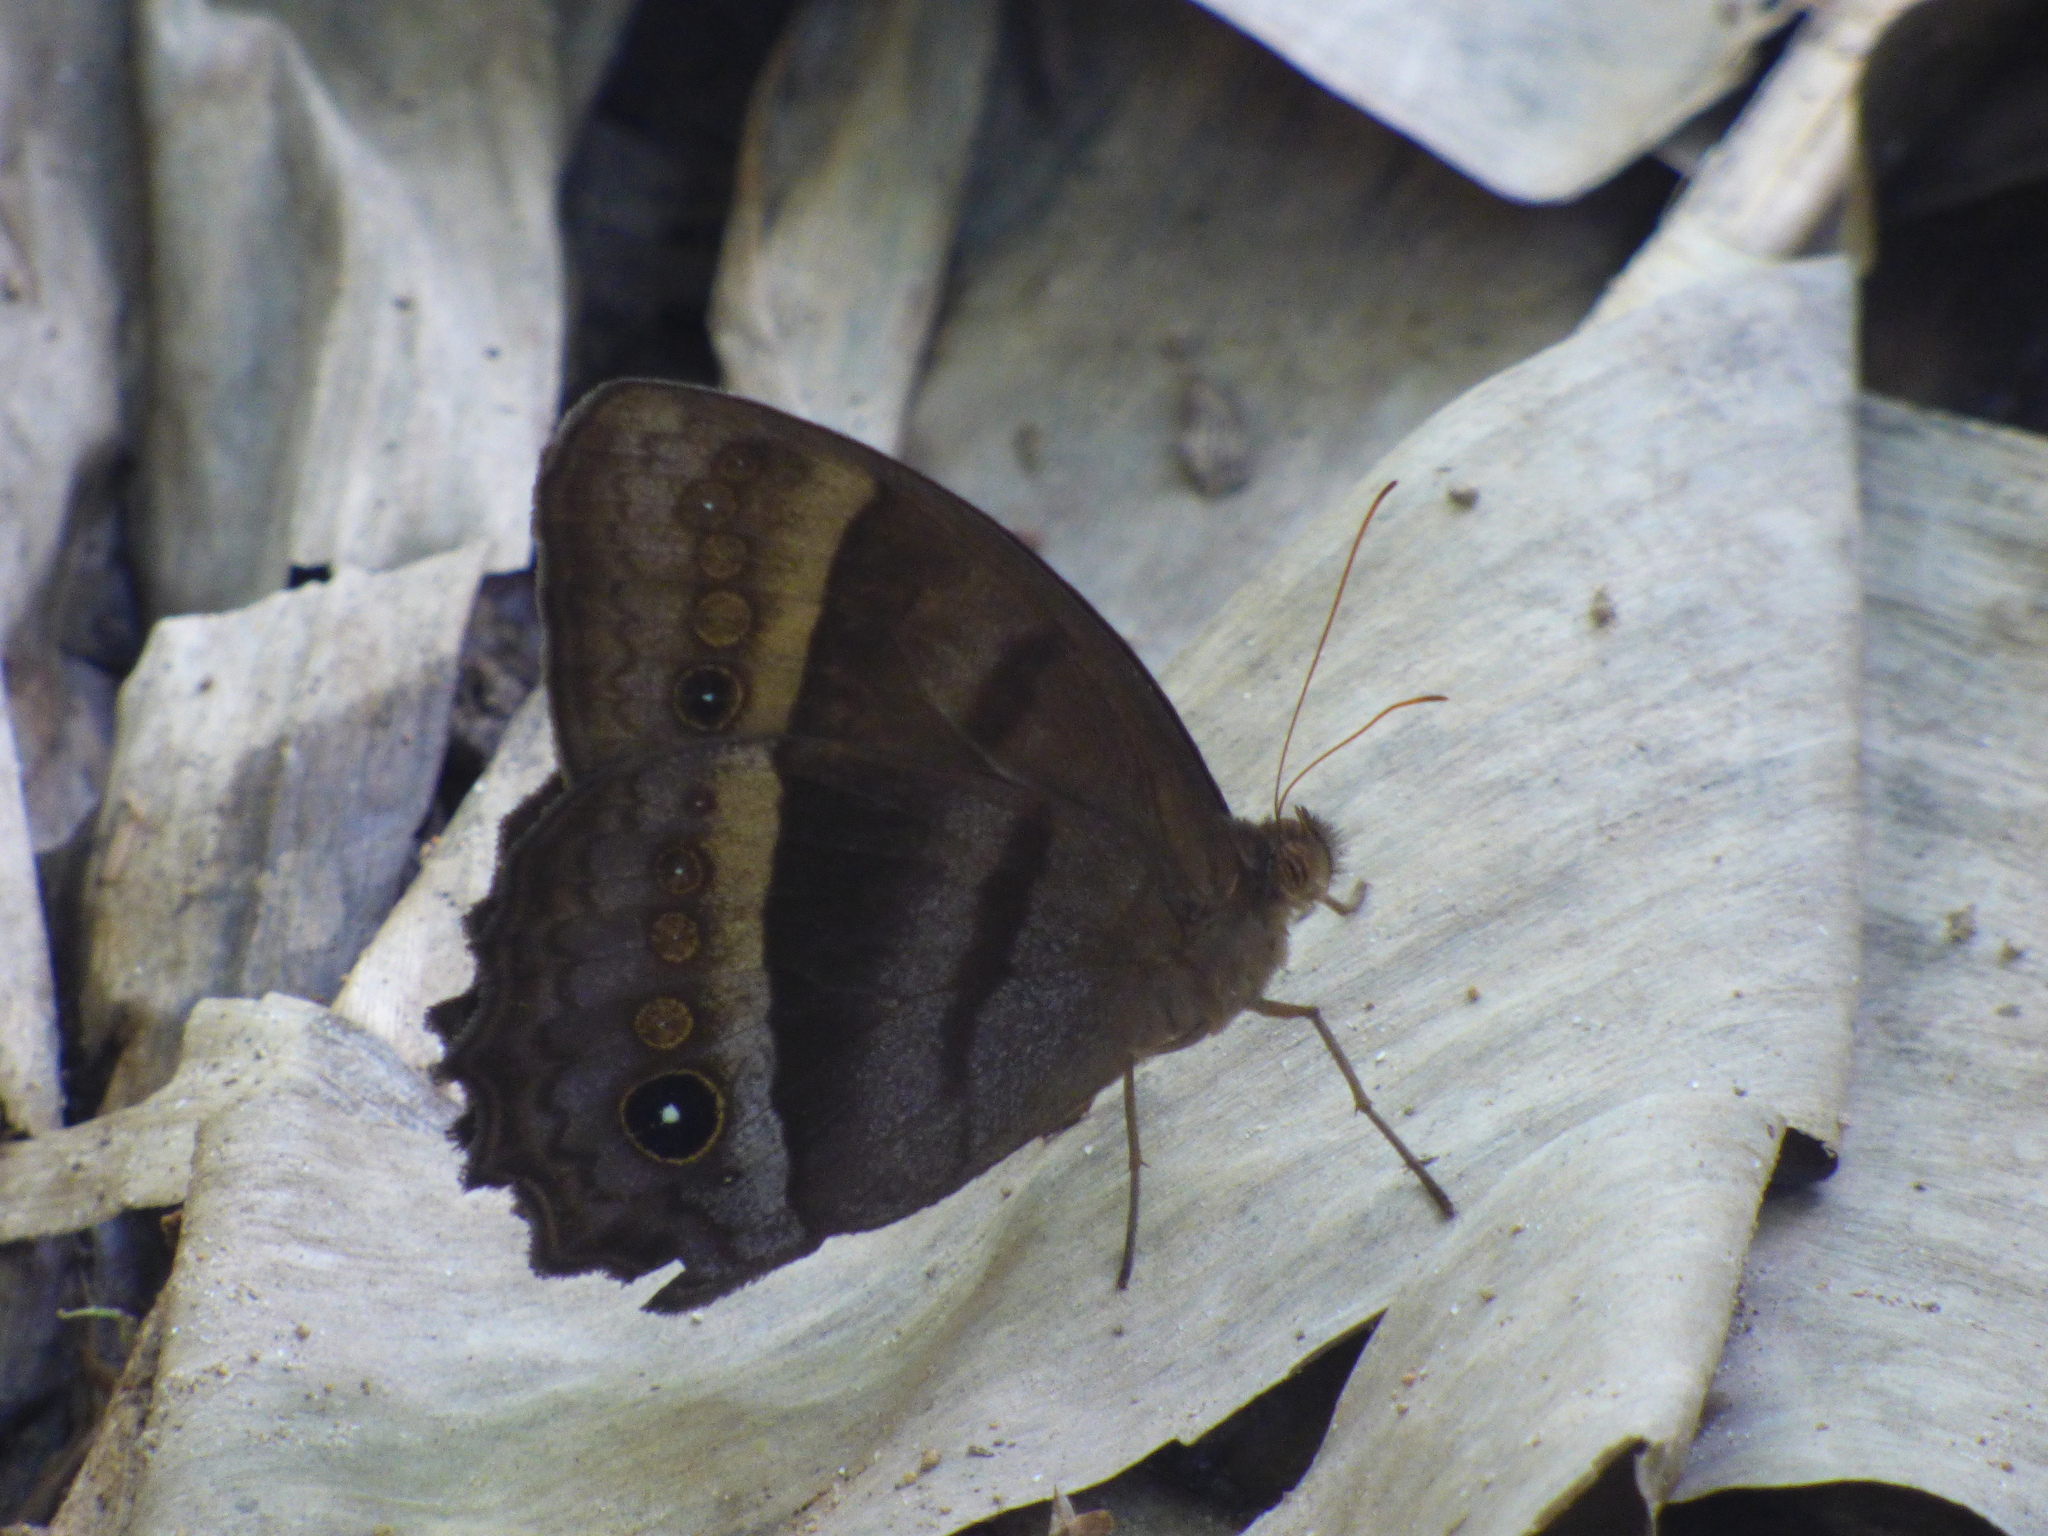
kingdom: Animalia
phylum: Arthropoda
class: Insecta
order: Lepidoptera
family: Nymphalidae
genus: Taygetis
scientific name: Taygetis thamyra
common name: Thamyra satyr
